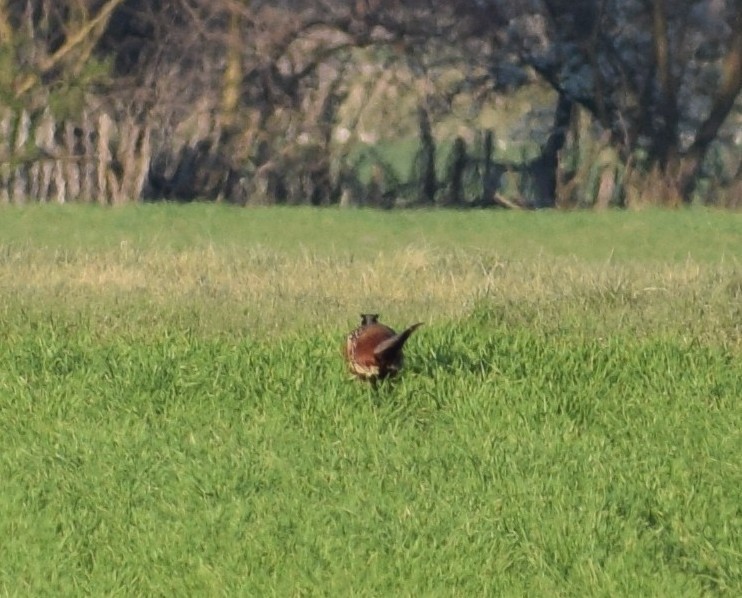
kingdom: Animalia
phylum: Chordata
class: Aves
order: Galliformes
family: Phasianidae
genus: Phasianus
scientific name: Phasianus colchicus
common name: Common pheasant
